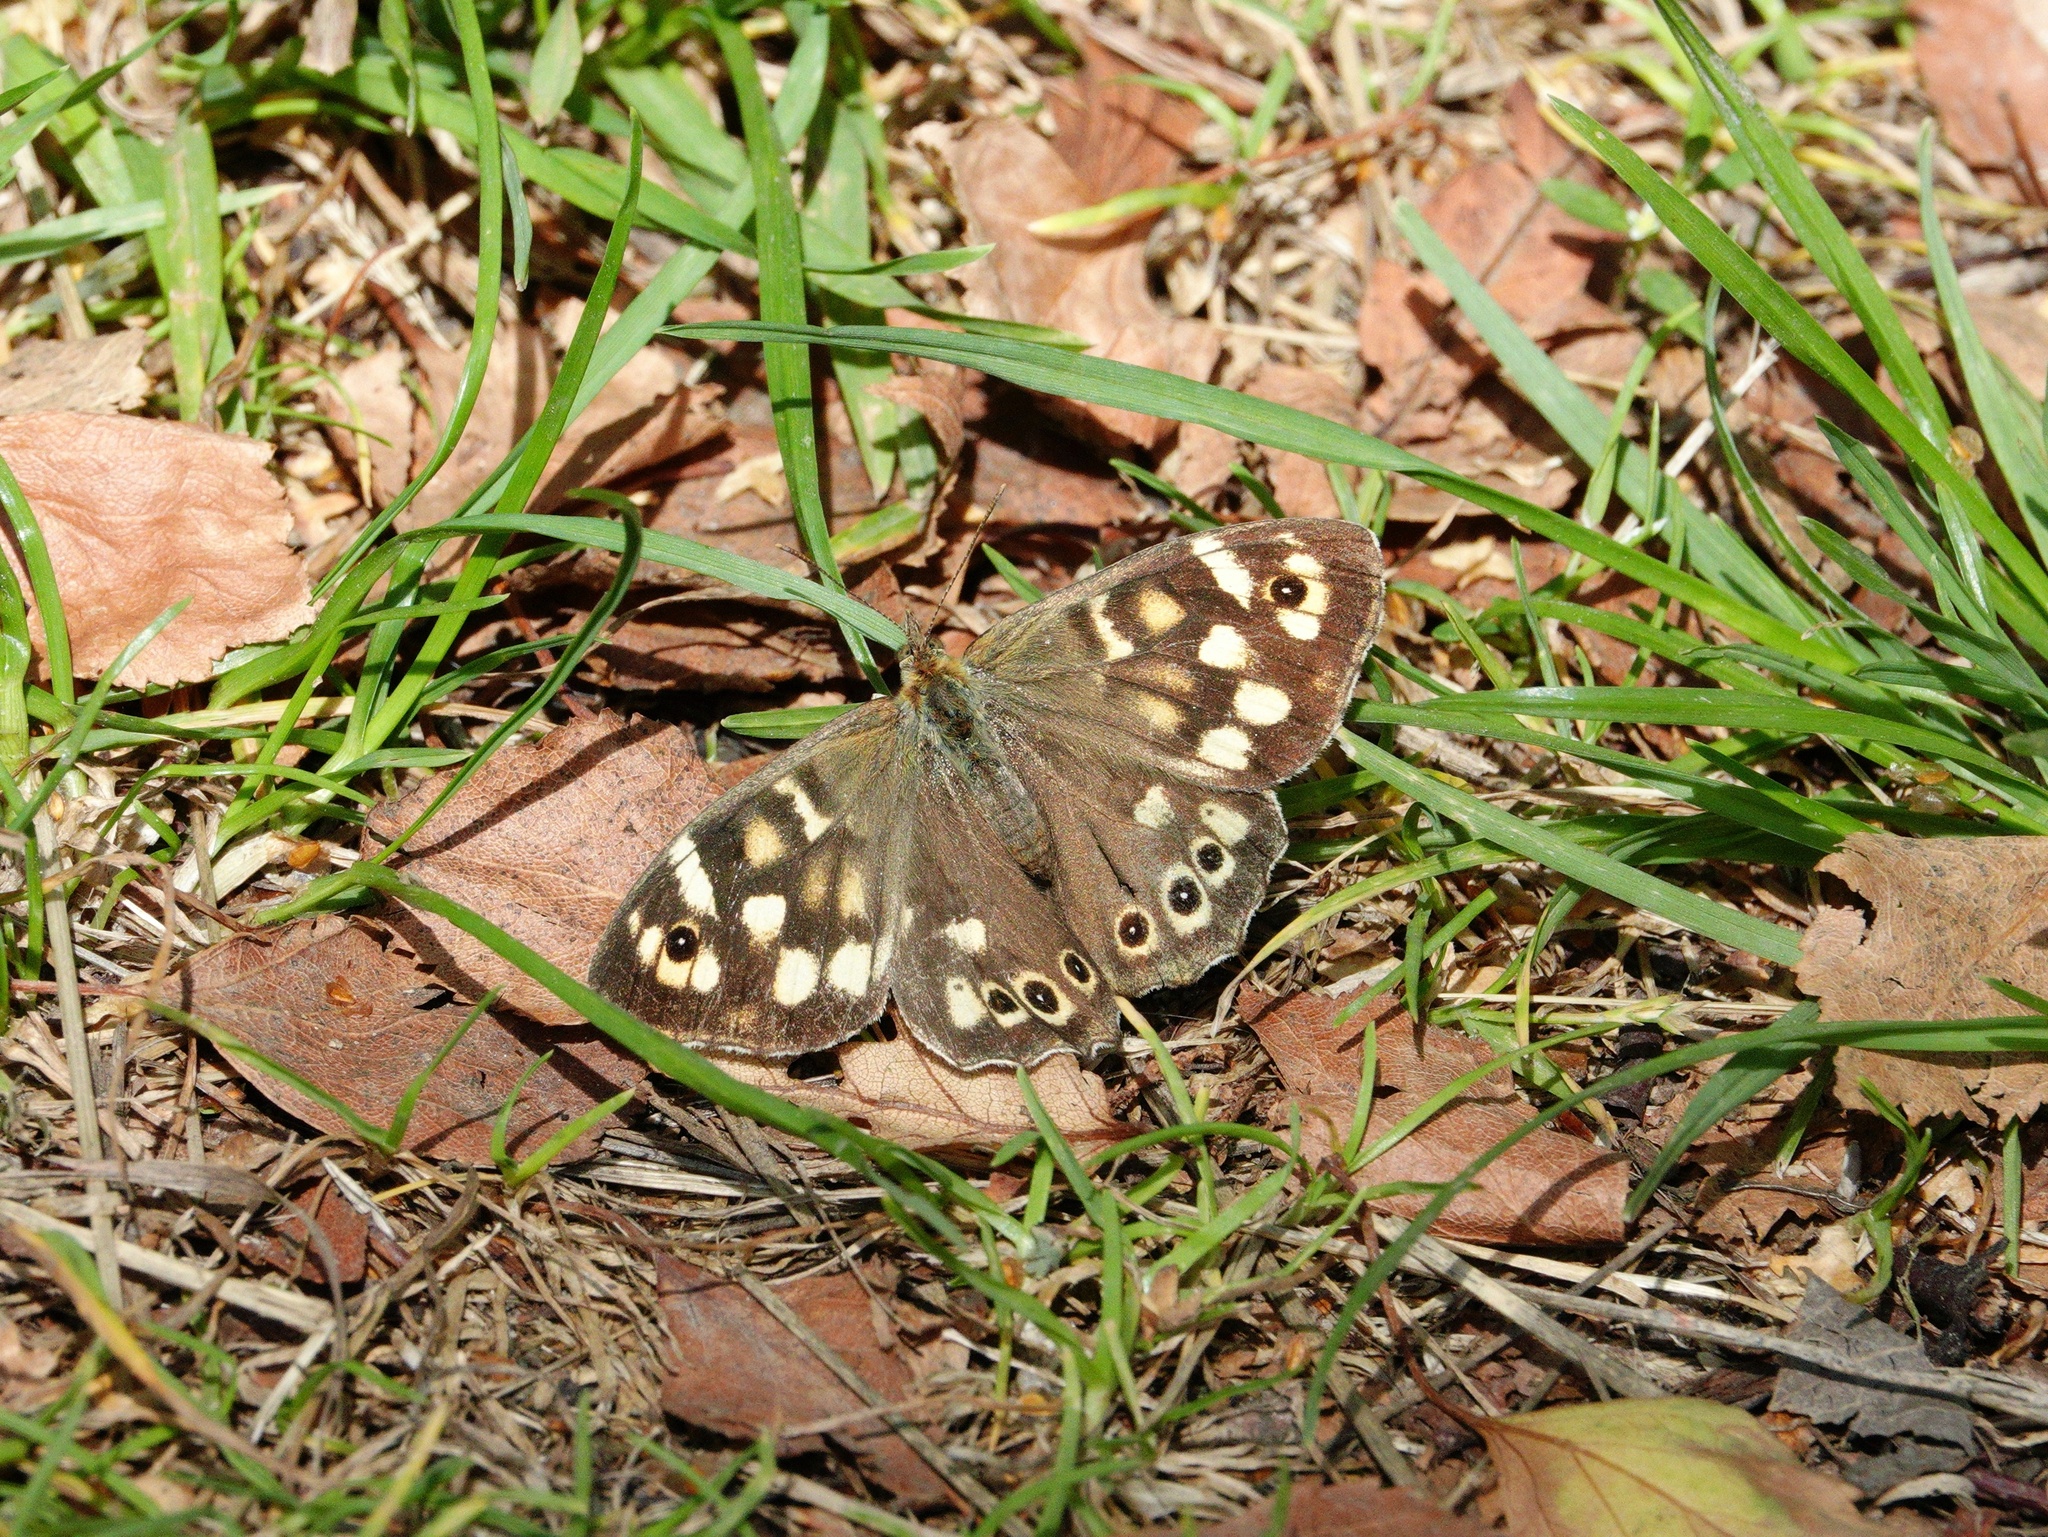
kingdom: Animalia
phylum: Arthropoda
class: Insecta
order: Lepidoptera
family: Nymphalidae
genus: Pararge
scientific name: Pararge aegeria
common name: Speckled wood
